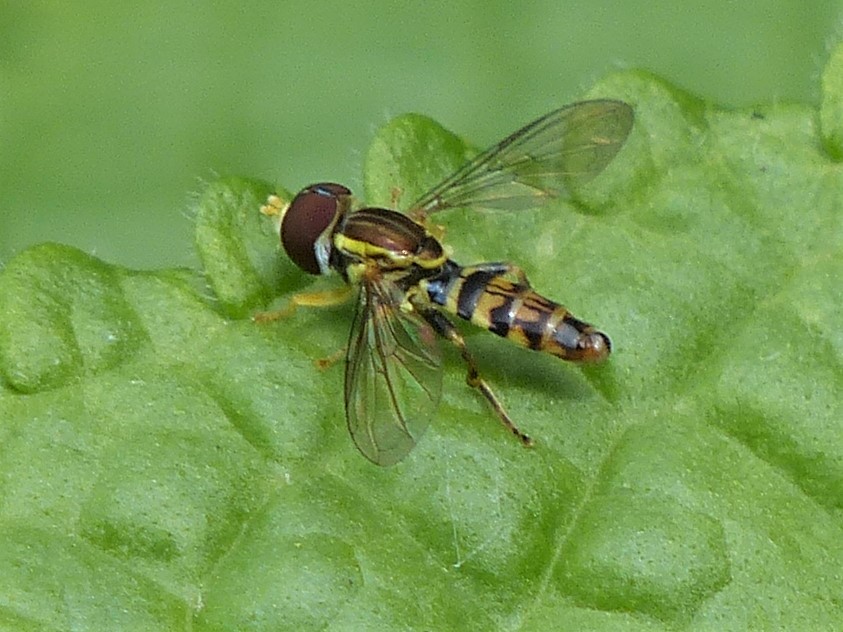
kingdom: Animalia
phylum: Arthropoda
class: Insecta
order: Diptera
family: Syrphidae
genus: Toxomerus
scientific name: Toxomerus geminatus
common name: Eastern calligrapher
